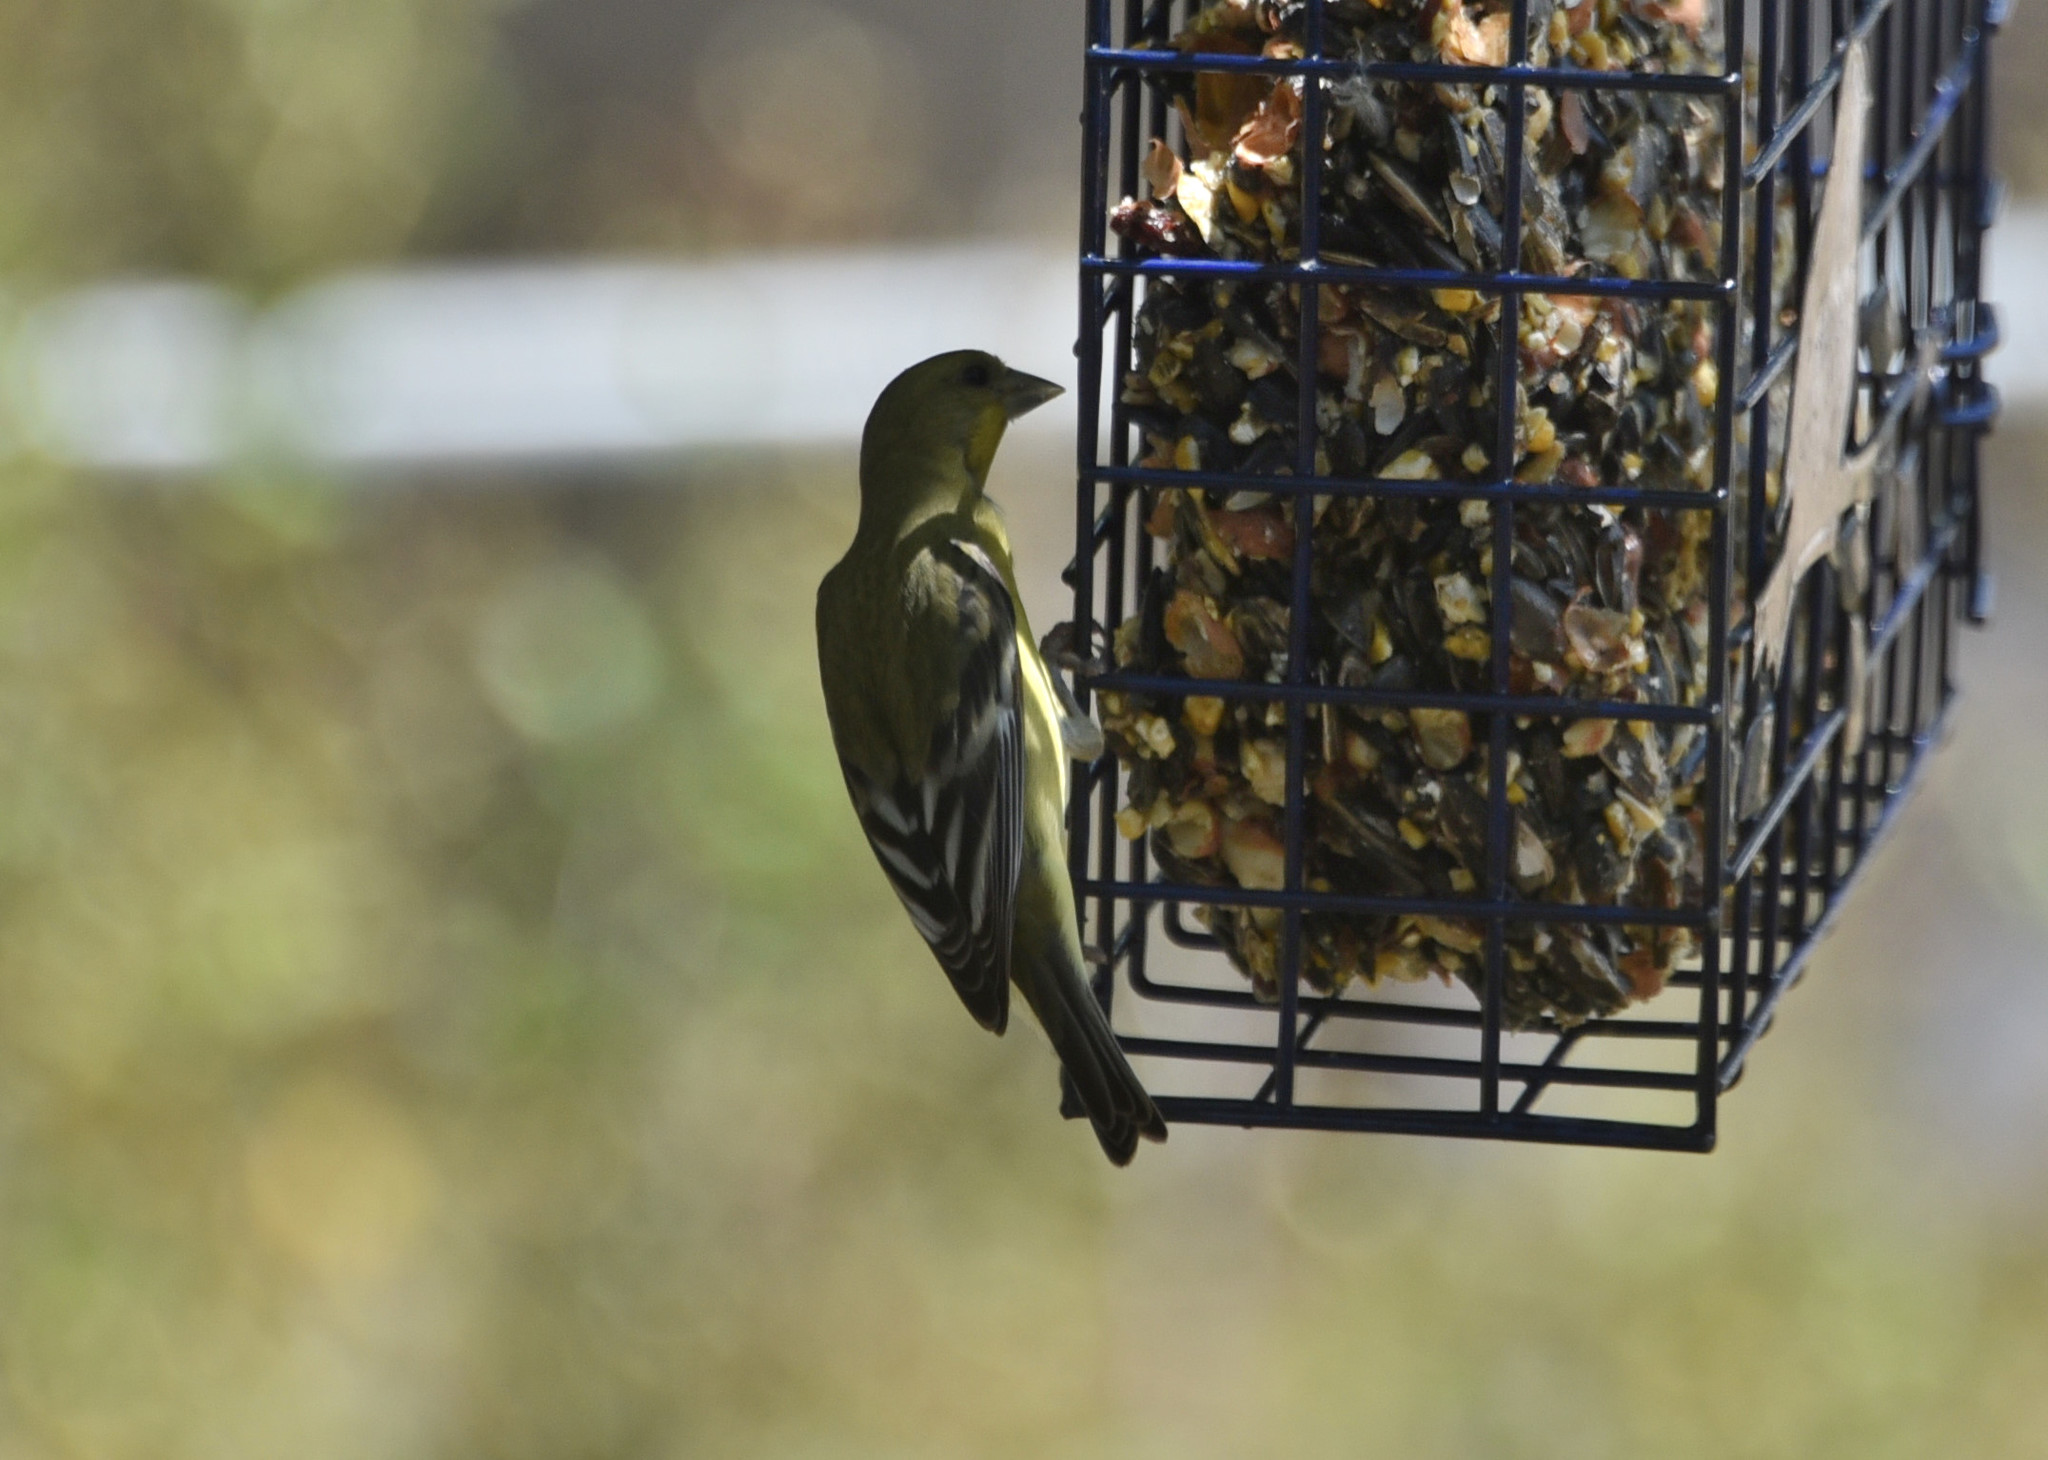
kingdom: Animalia
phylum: Chordata
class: Aves
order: Passeriformes
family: Fringillidae
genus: Spinus
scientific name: Spinus psaltria
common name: Lesser goldfinch
